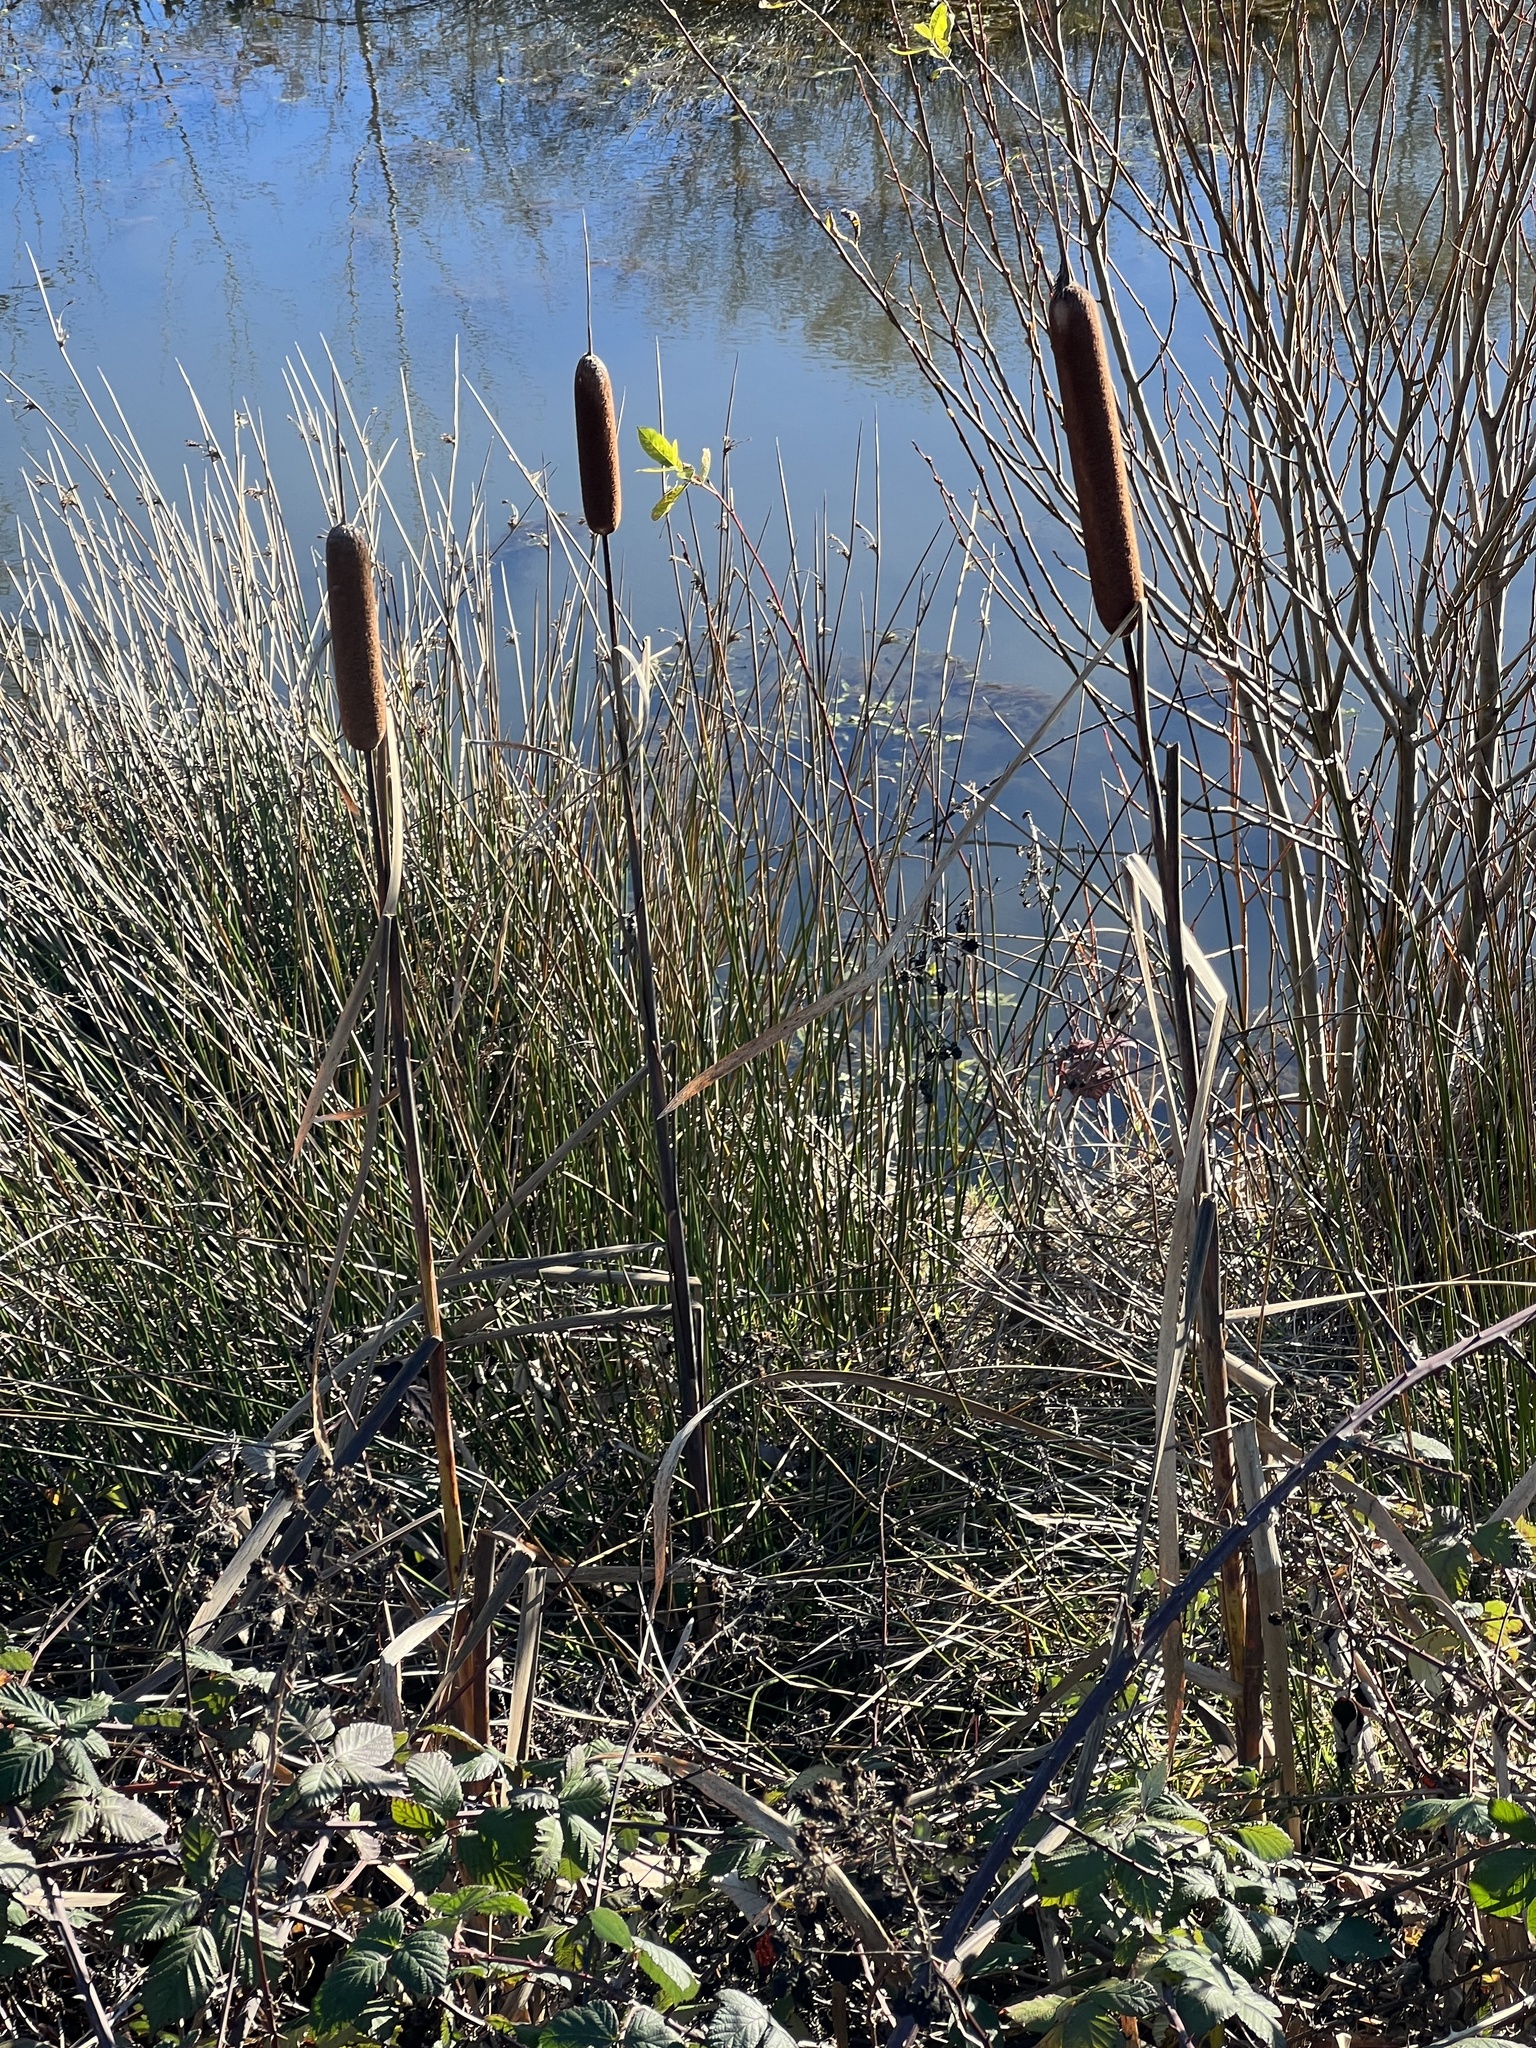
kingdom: Plantae
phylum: Tracheophyta
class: Liliopsida
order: Poales
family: Typhaceae
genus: Typha
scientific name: Typha latifolia
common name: Broadleaf cattail
